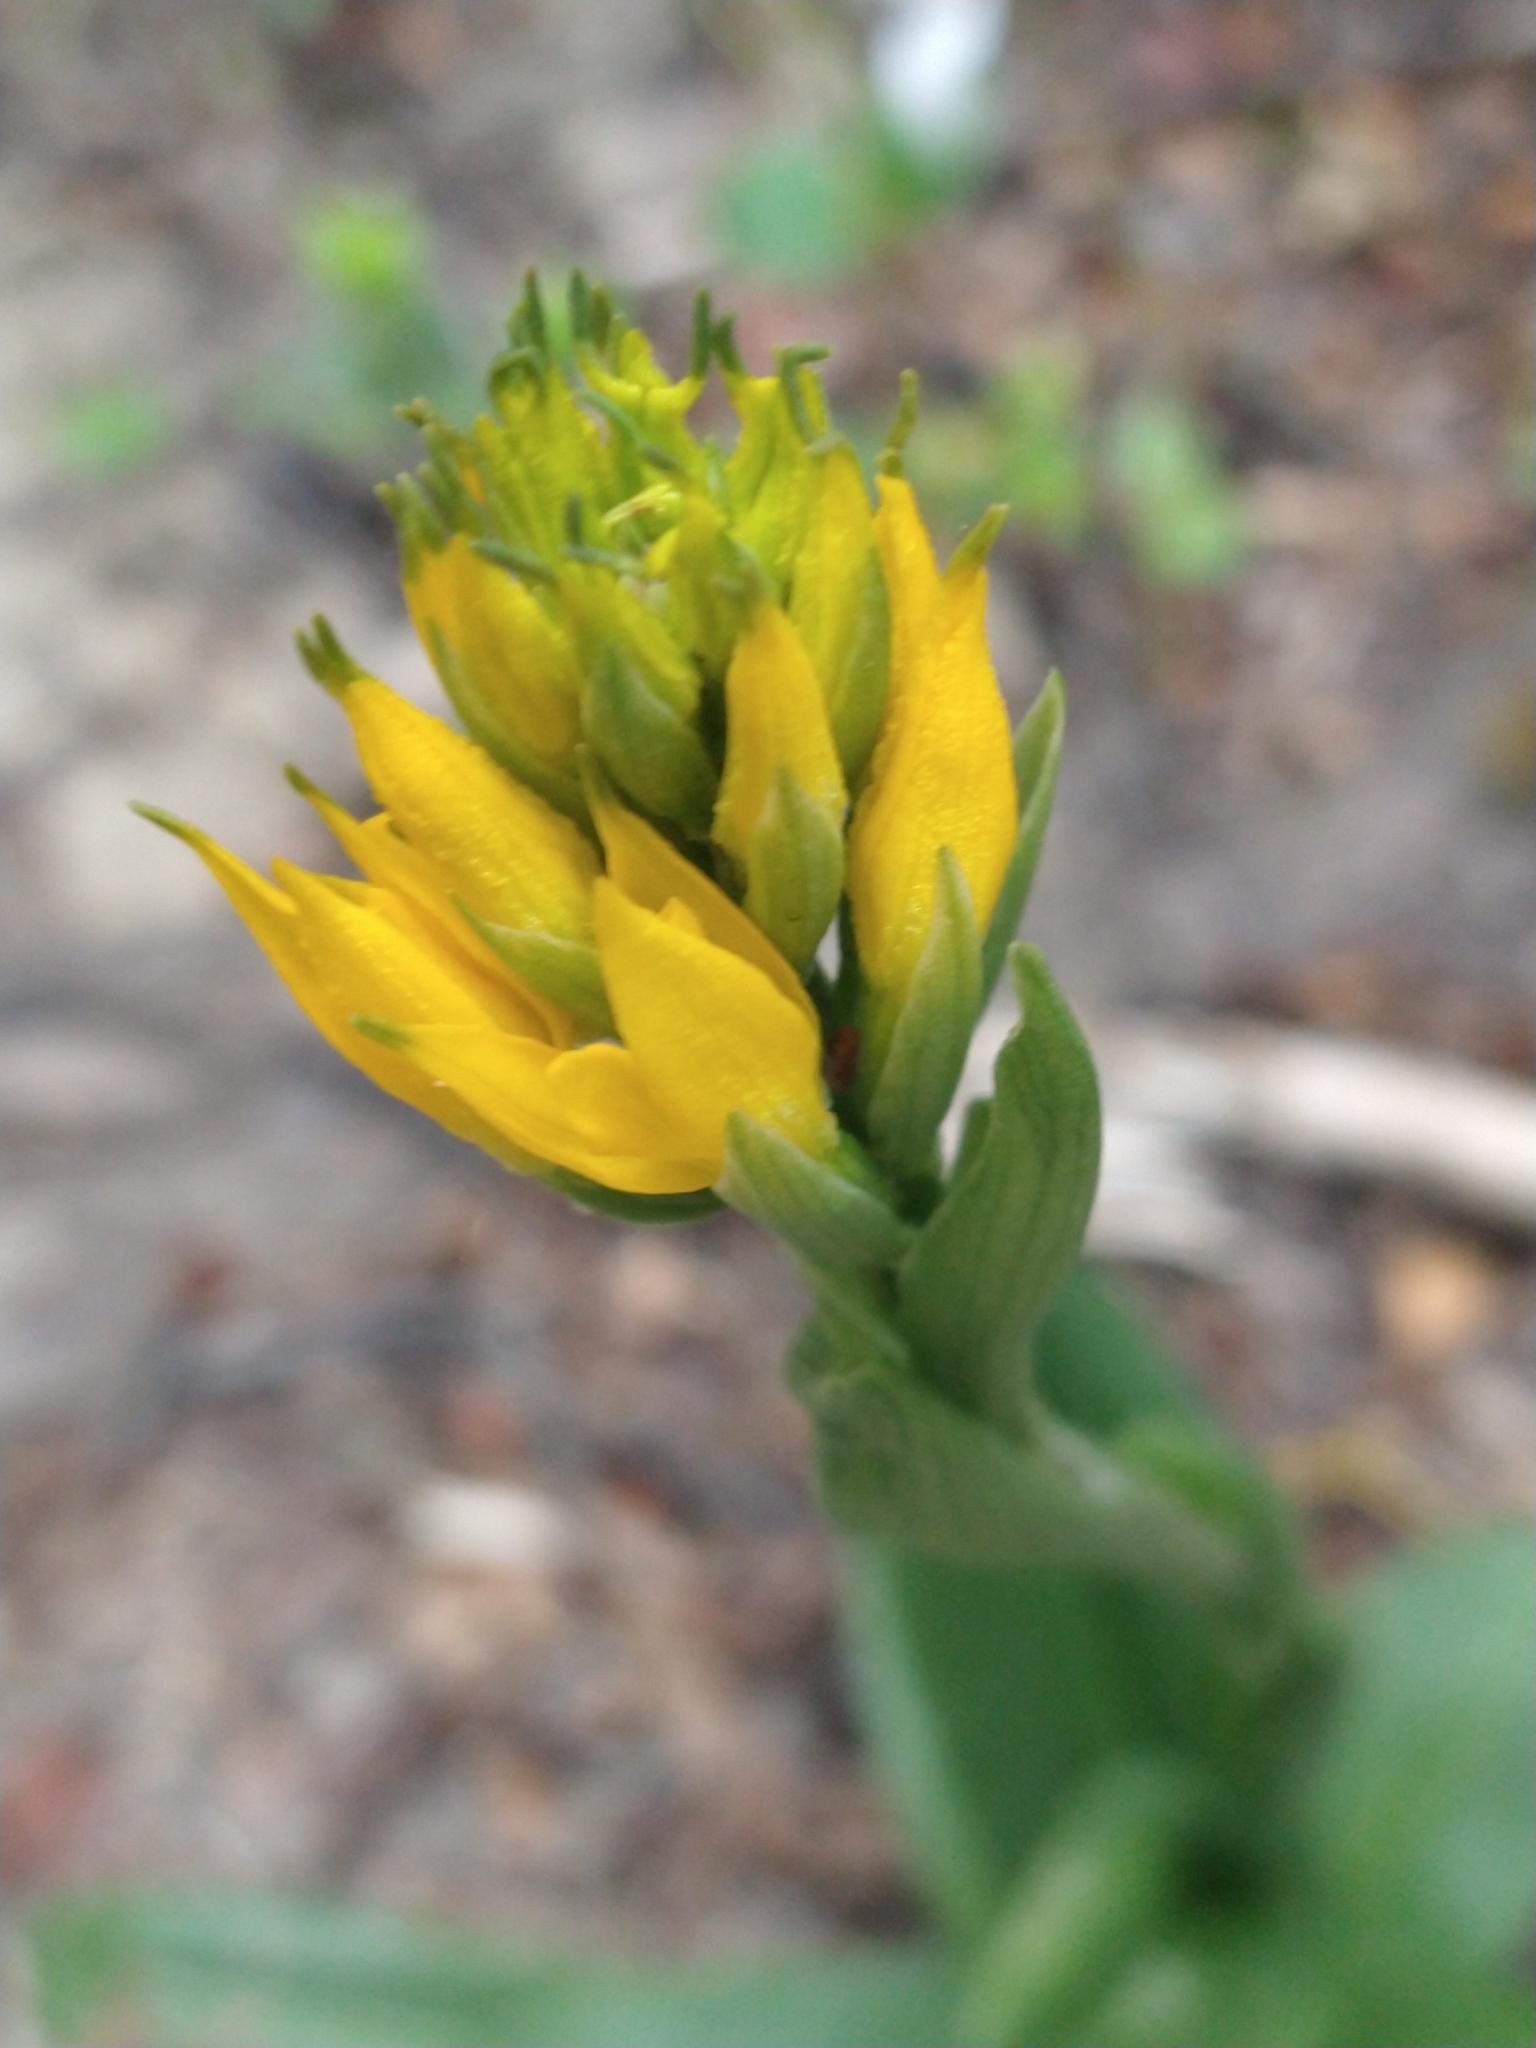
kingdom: Plantae
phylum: Tracheophyta
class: Liliopsida
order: Asparagales
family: Orchidaceae
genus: Gavilea
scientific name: Gavilea lutea
